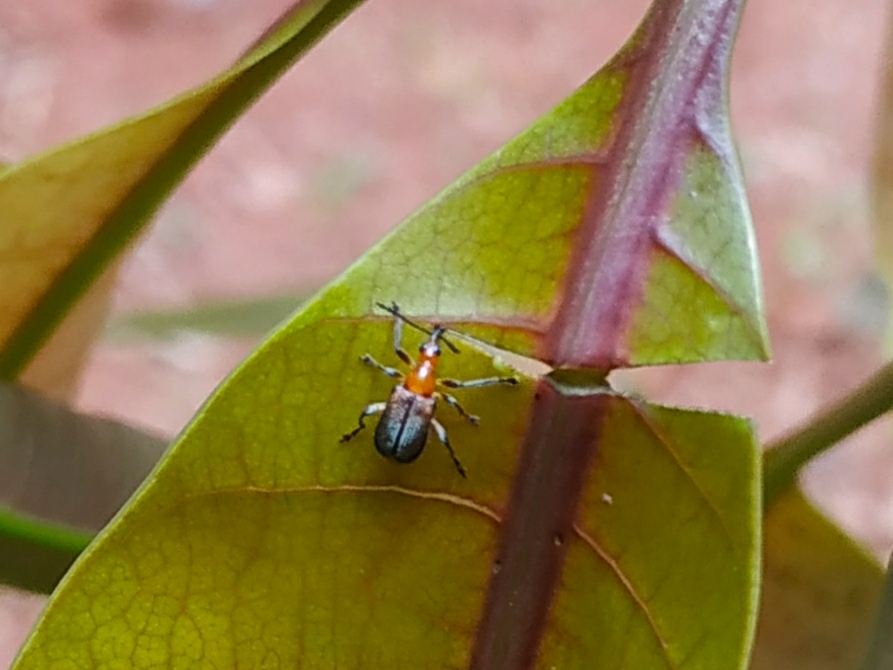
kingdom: Animalia
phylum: Arthropoda
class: Insecta
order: Coleoptera
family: Attelabidae
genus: Deporaus
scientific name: Deporaus marginatus
